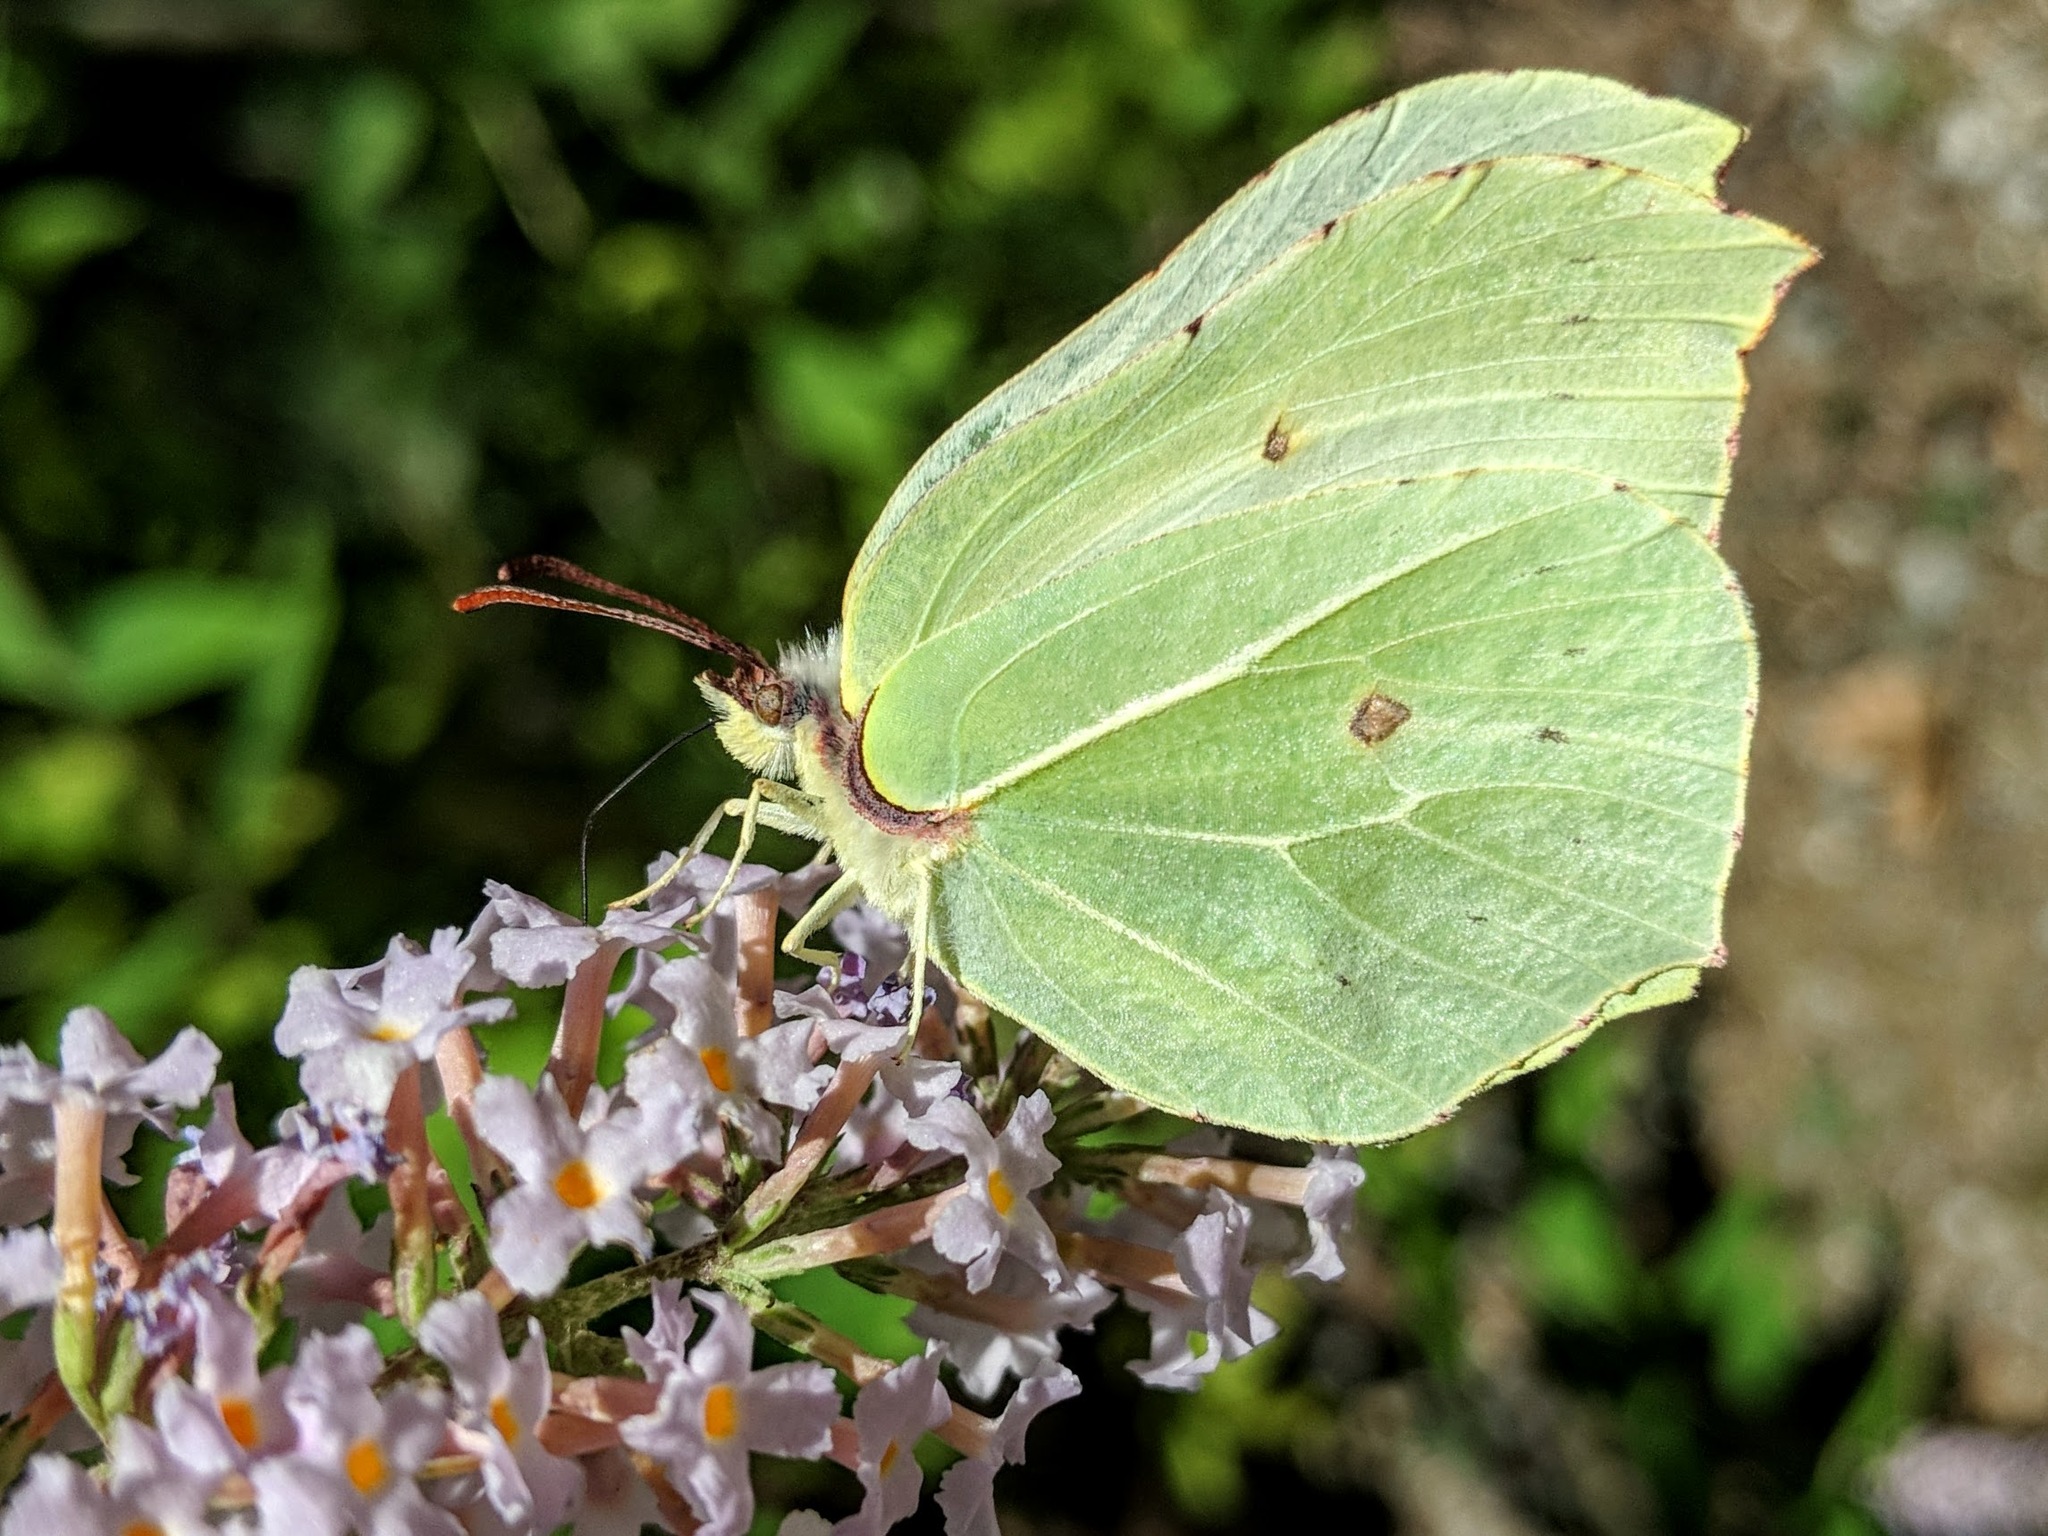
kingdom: Animalia
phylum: Arthropoda
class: Insecta
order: Lepidoptera
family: Pieridae
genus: Gonepteryx
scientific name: Gonepteryx rhamni
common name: Brimstone
